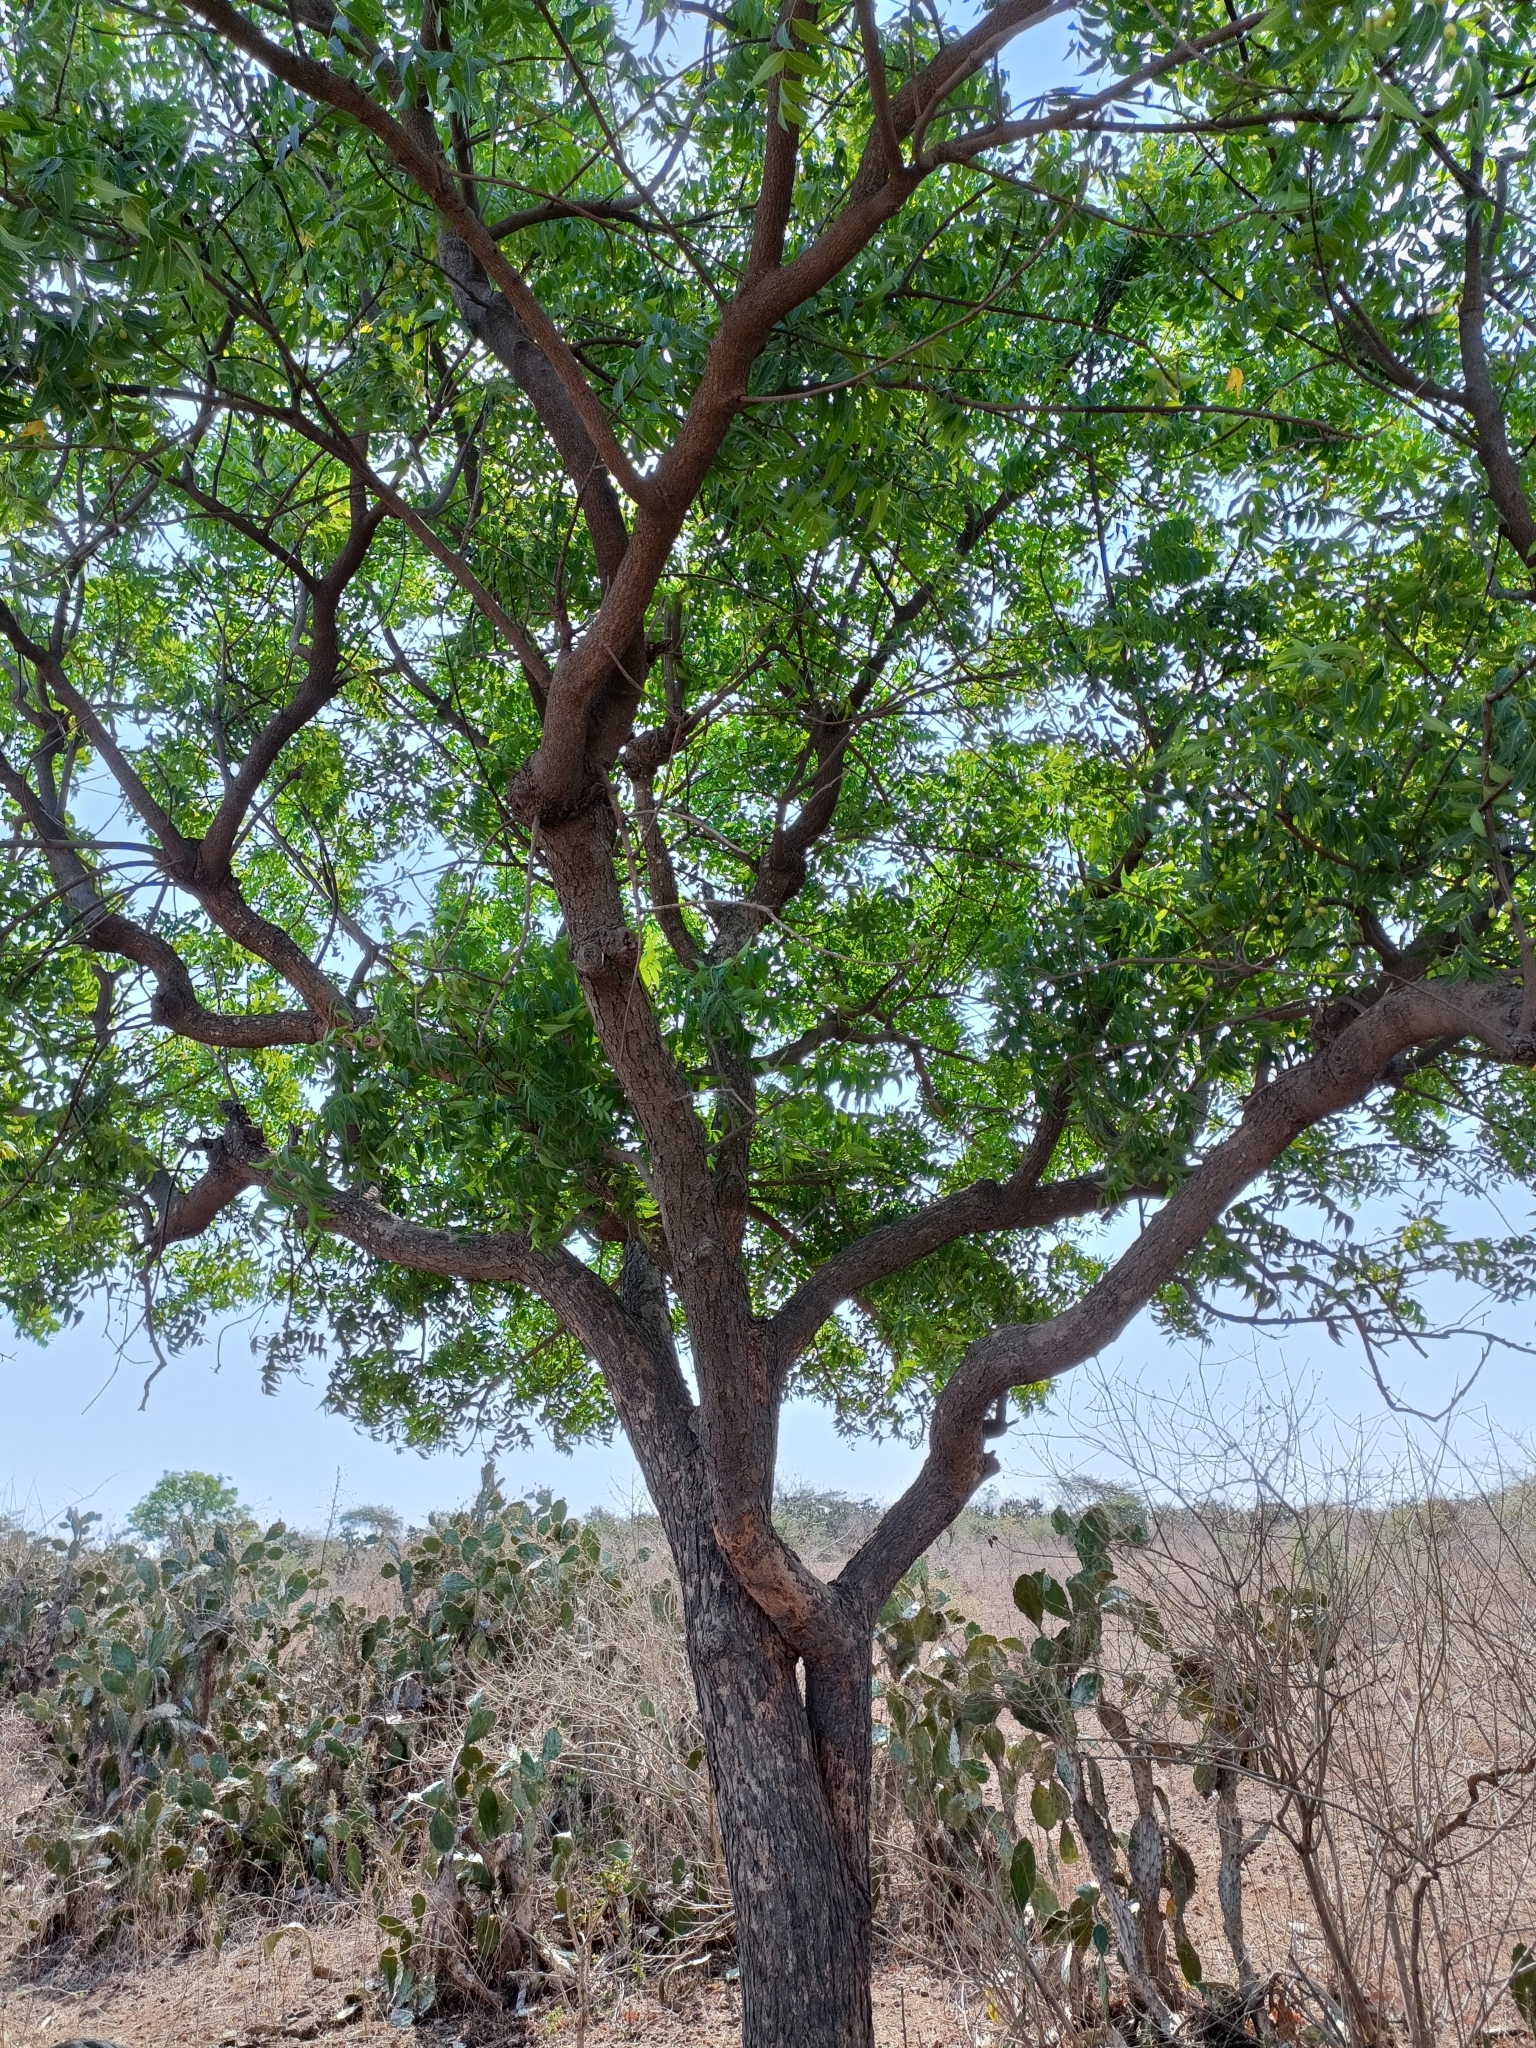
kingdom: Plantae
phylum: Tracheophyta
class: Magnoliopsida
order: Sapindales
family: Meliaceae
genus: Azadirachta
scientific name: Azadirachta indica
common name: Neem
